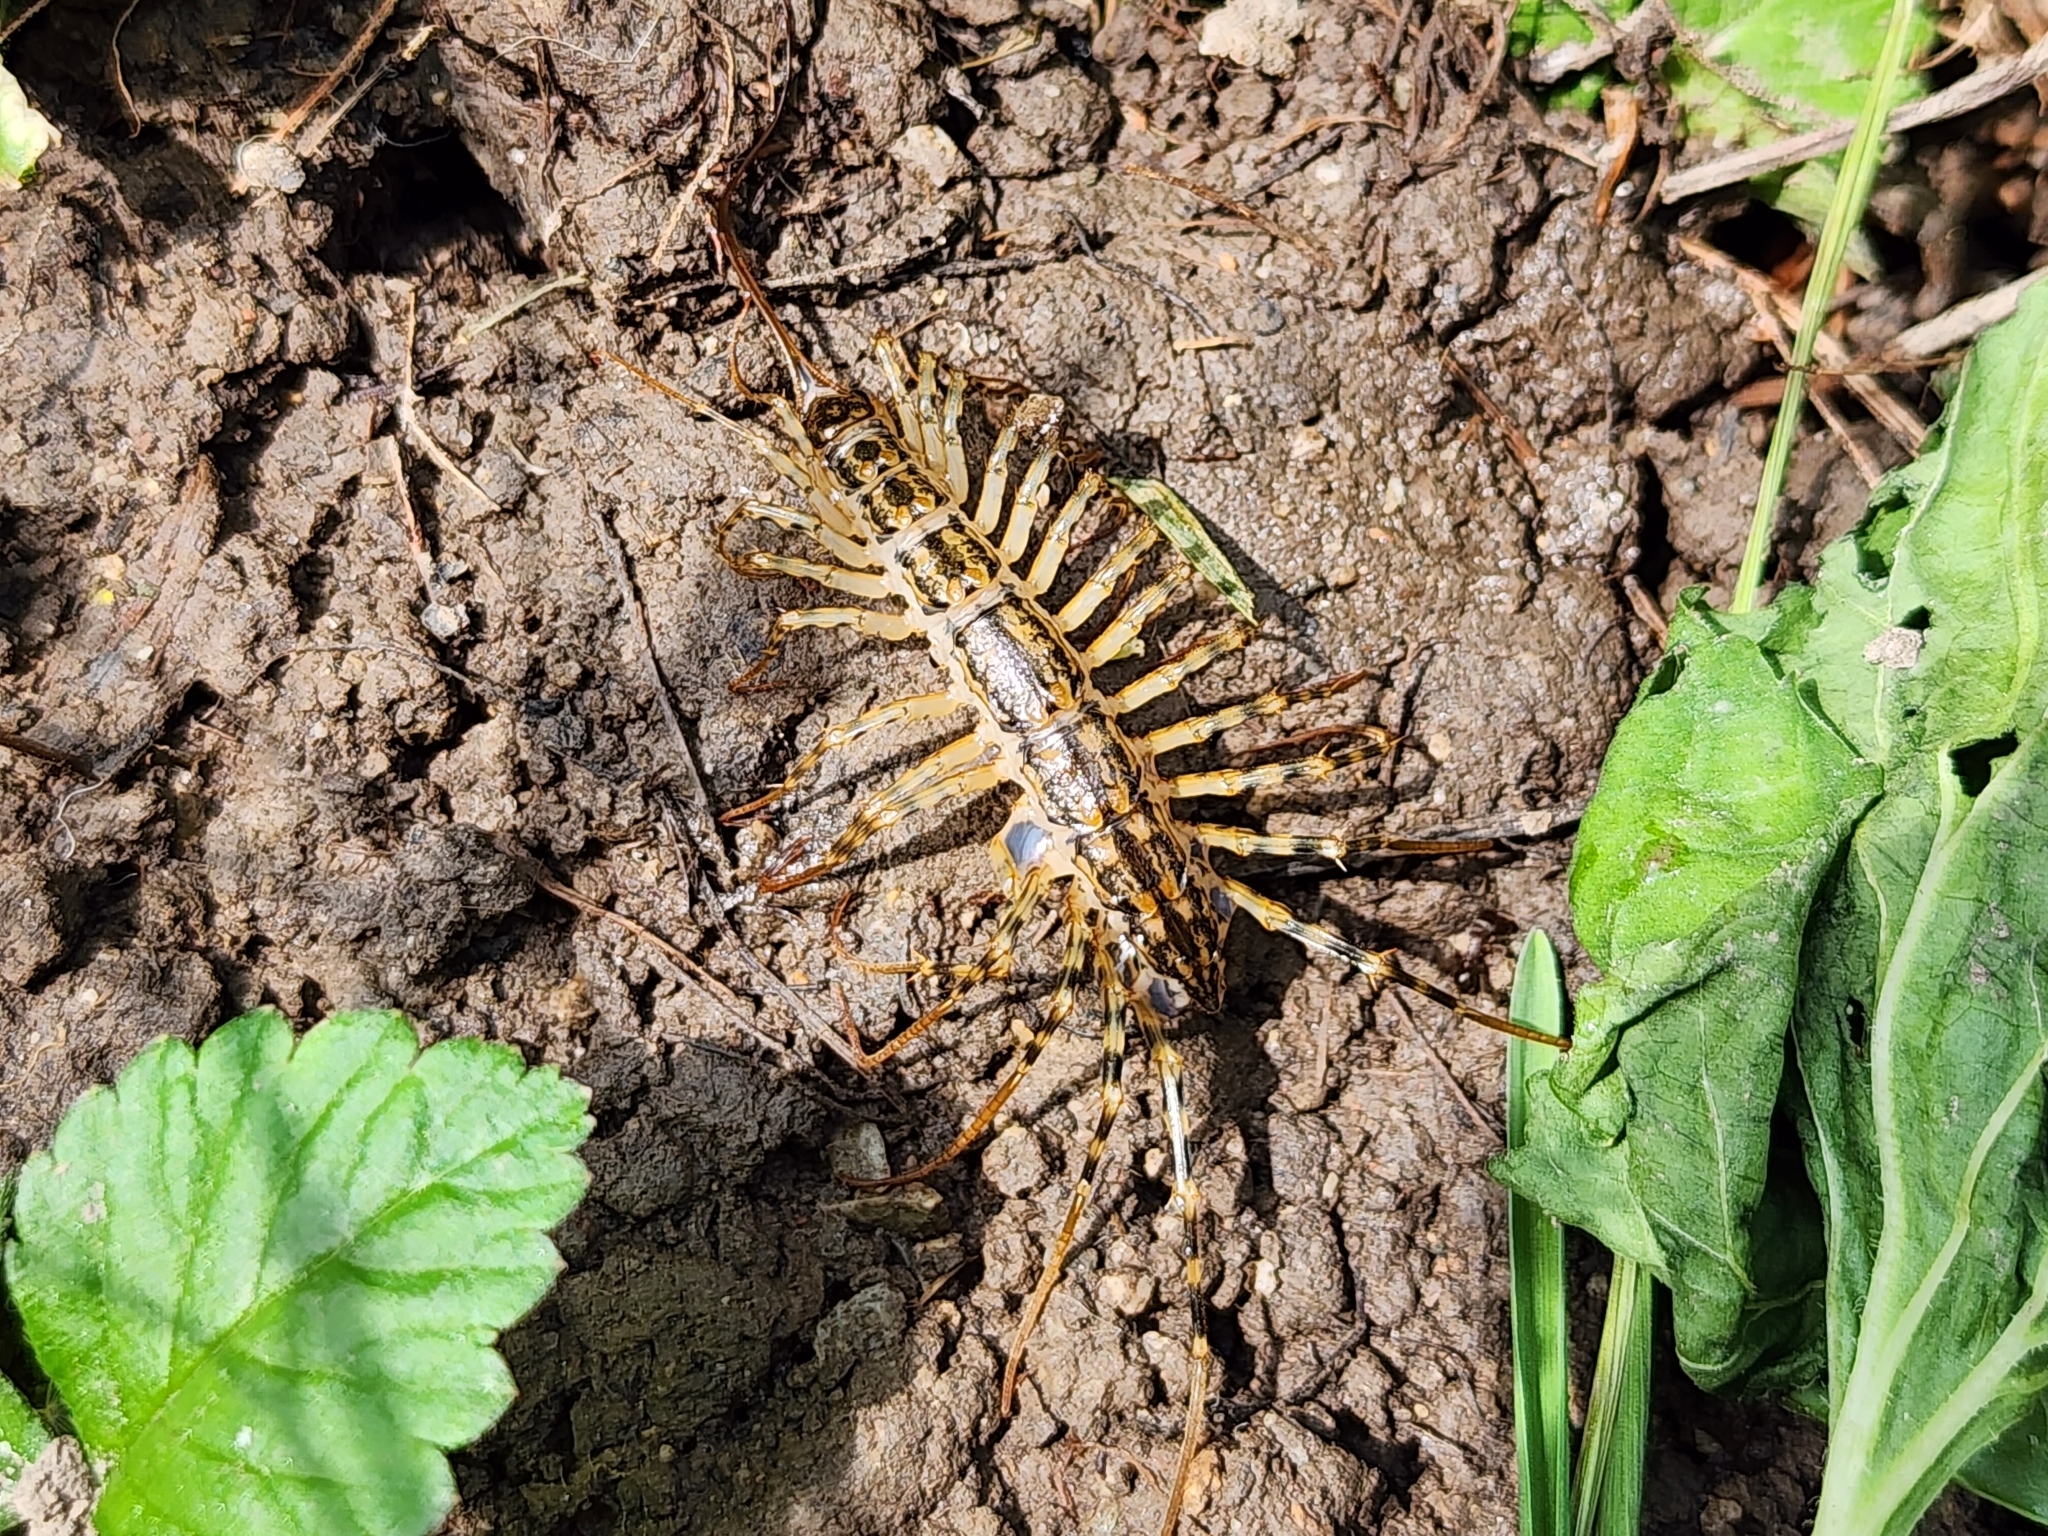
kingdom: Animalia
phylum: Arthropoda
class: Chilopoda
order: Scutigeromorpha
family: Scutigeridae
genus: Thereuonema
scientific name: Thereuonema tuberculata
